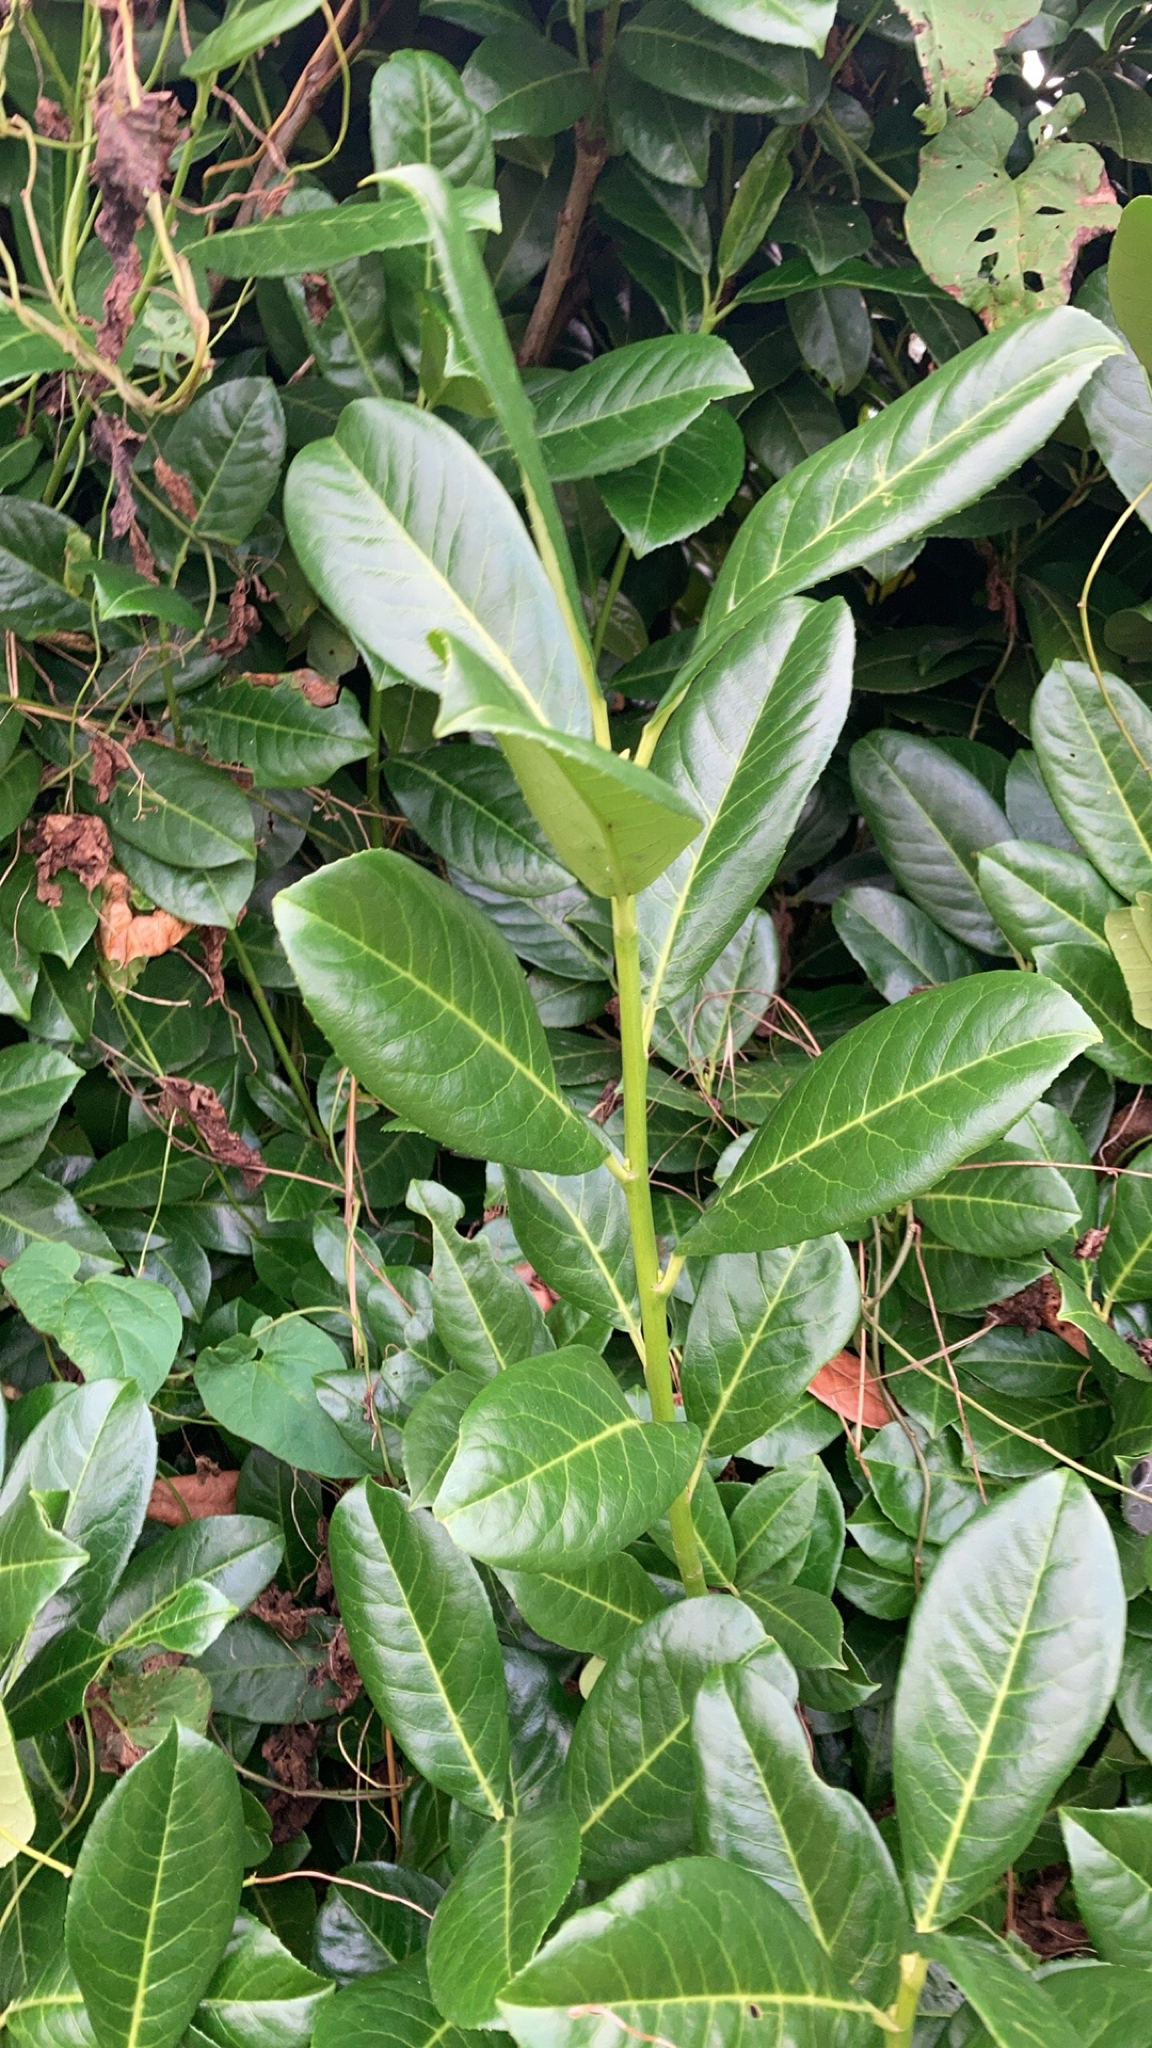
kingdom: Plantae
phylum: Tracheophyta
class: Magnoliopsida
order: Rosales
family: Rosaceae
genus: Prunus
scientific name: Prunus laurocerasus
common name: Cherry laurel
